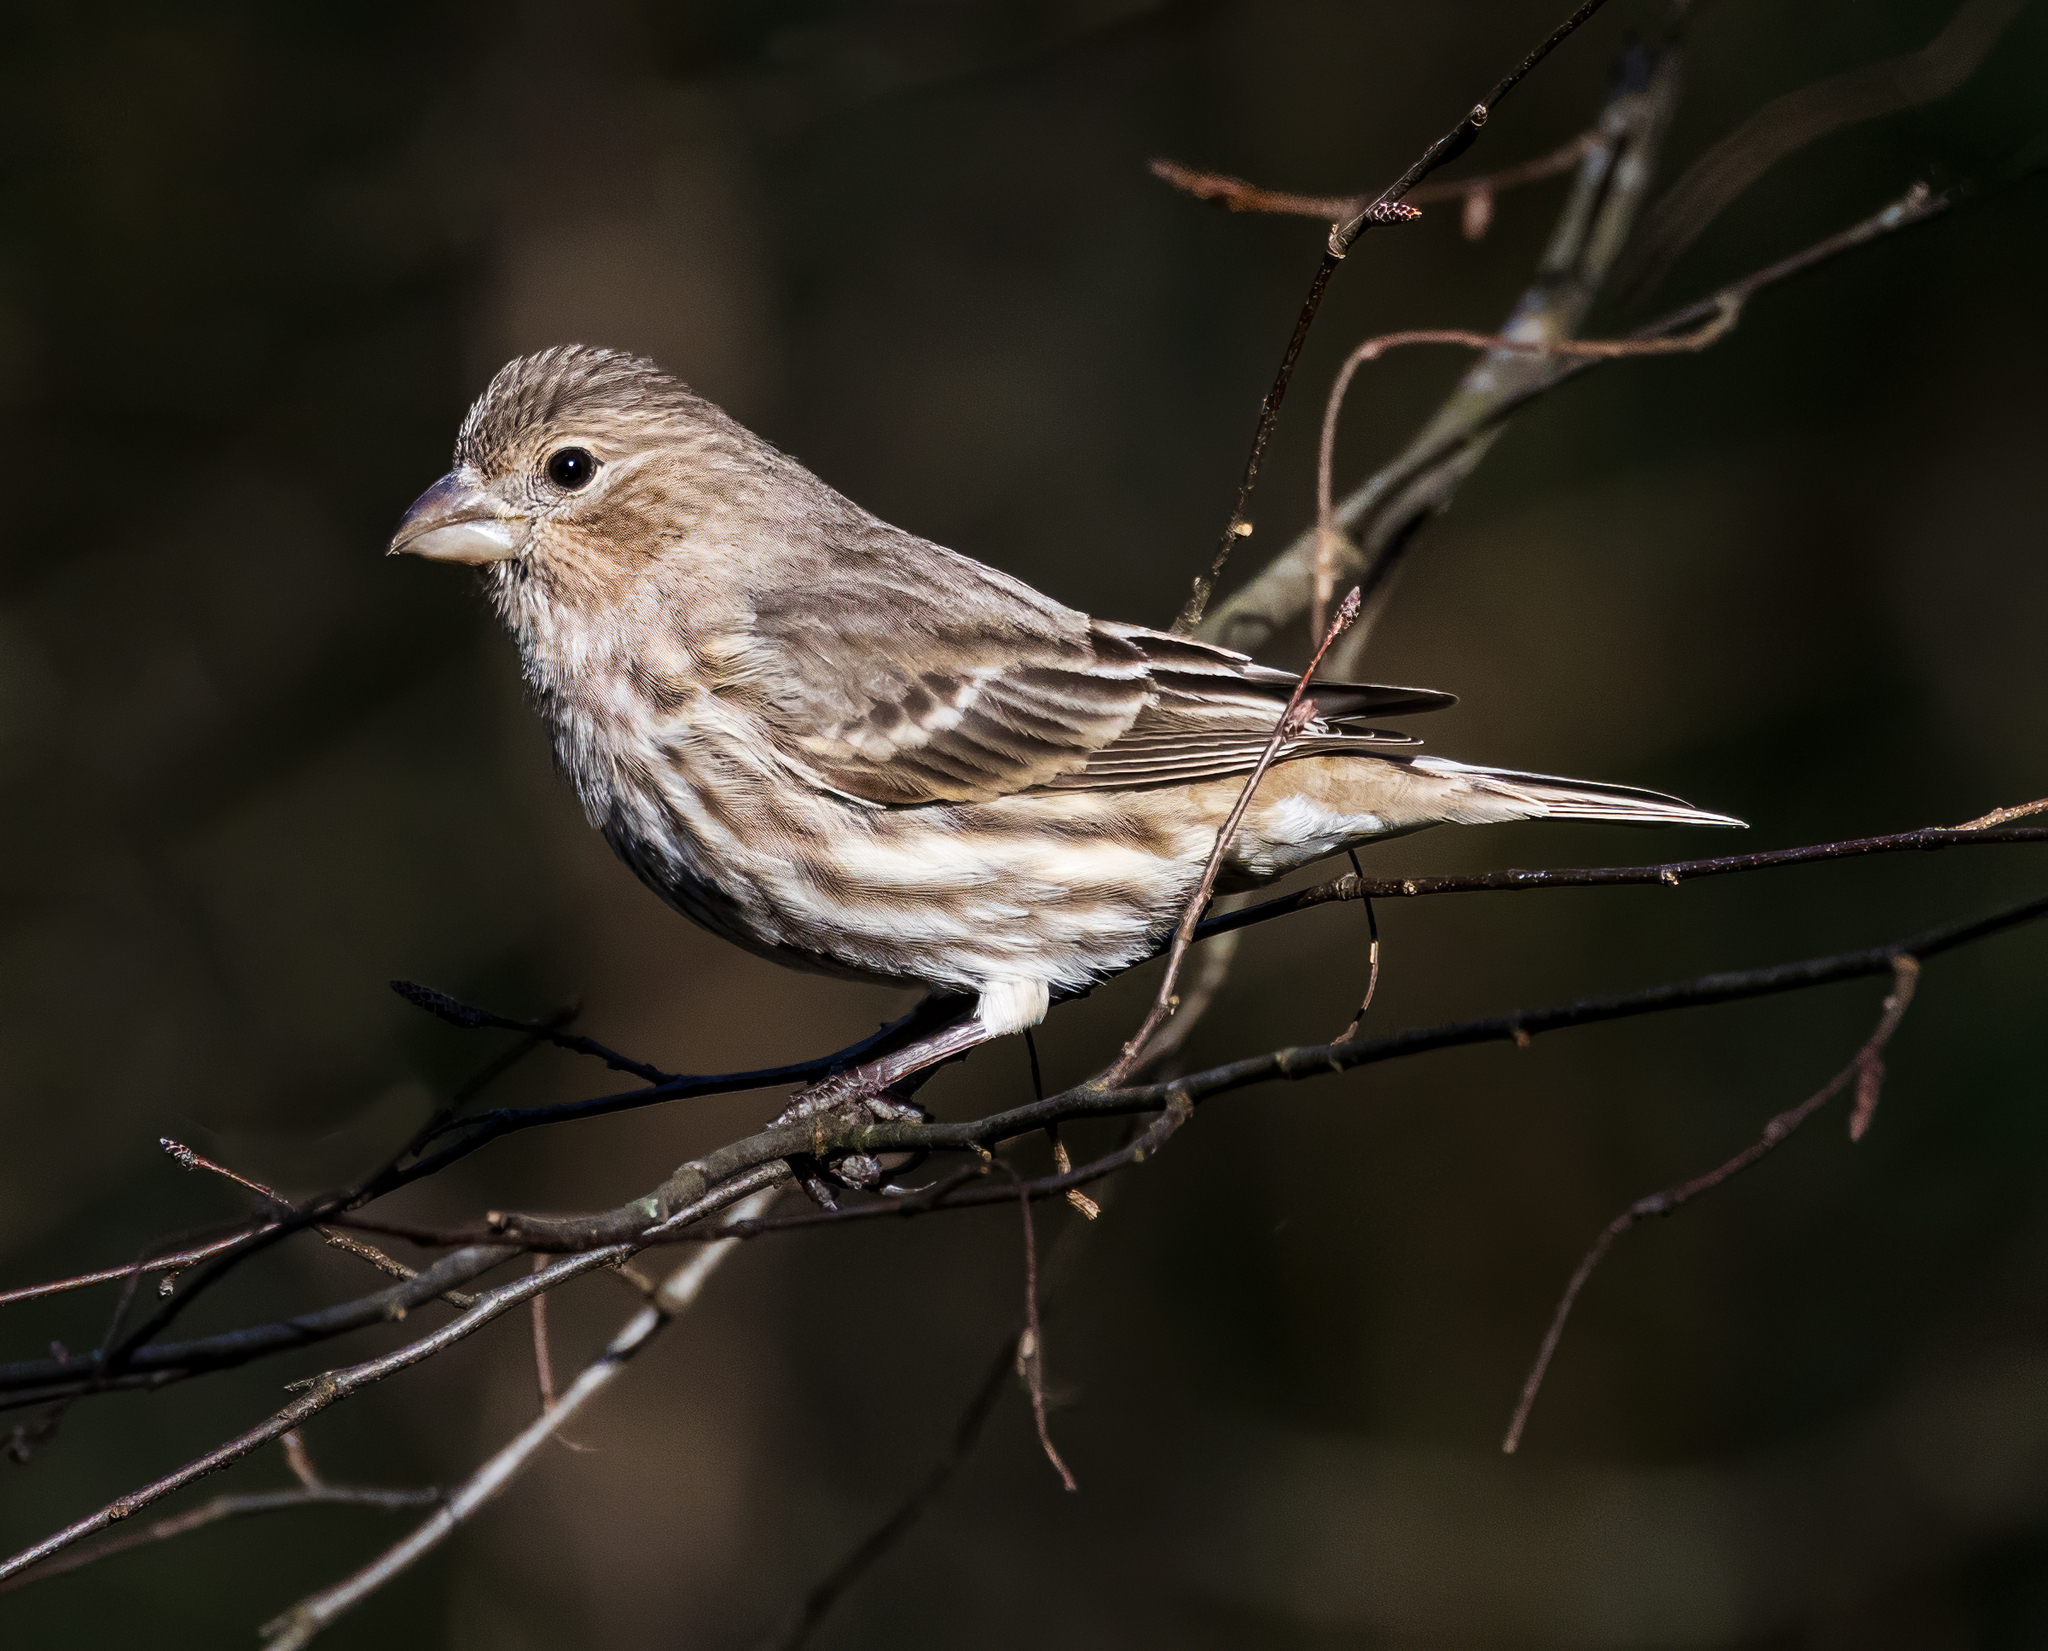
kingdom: Animalia
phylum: Chordata
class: Aves
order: Passeriformes
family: Fringillidae
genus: Haemorhous
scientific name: Haemorhous mexicanus
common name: House finch
